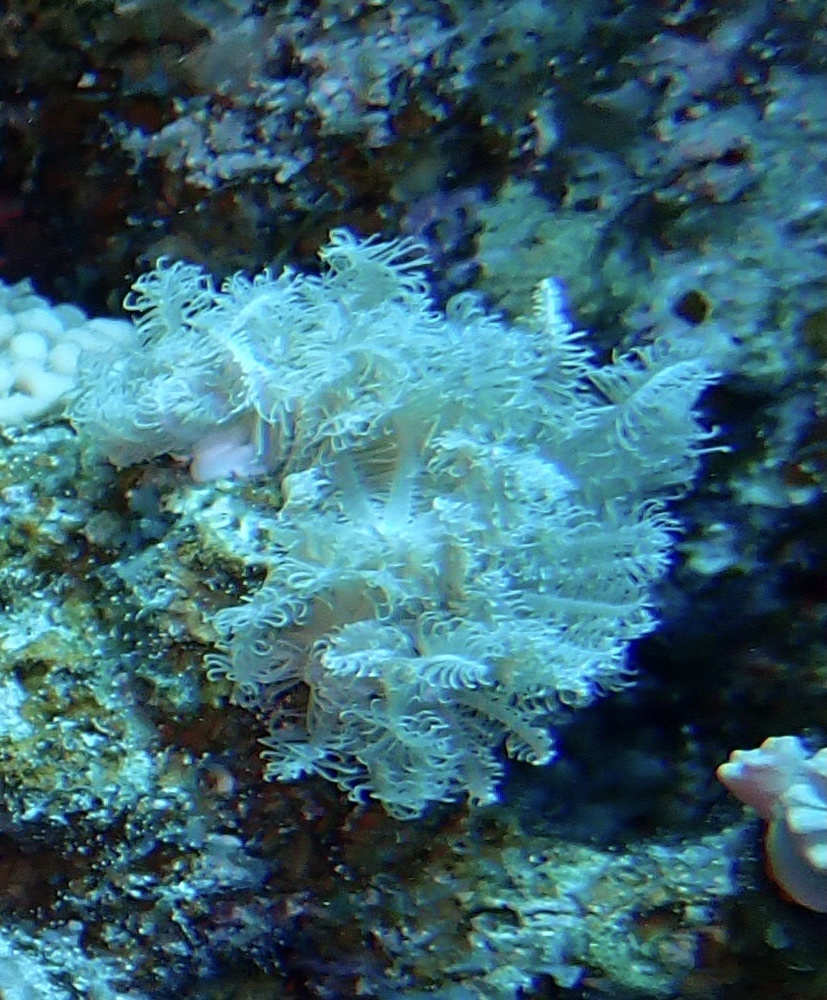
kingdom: Animalia
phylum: Cnidaria
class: Anthozoa
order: Malacalcyonacea
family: Xeniidae
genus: Anthelia
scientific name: Anthelia glauca
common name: Pulse coral
